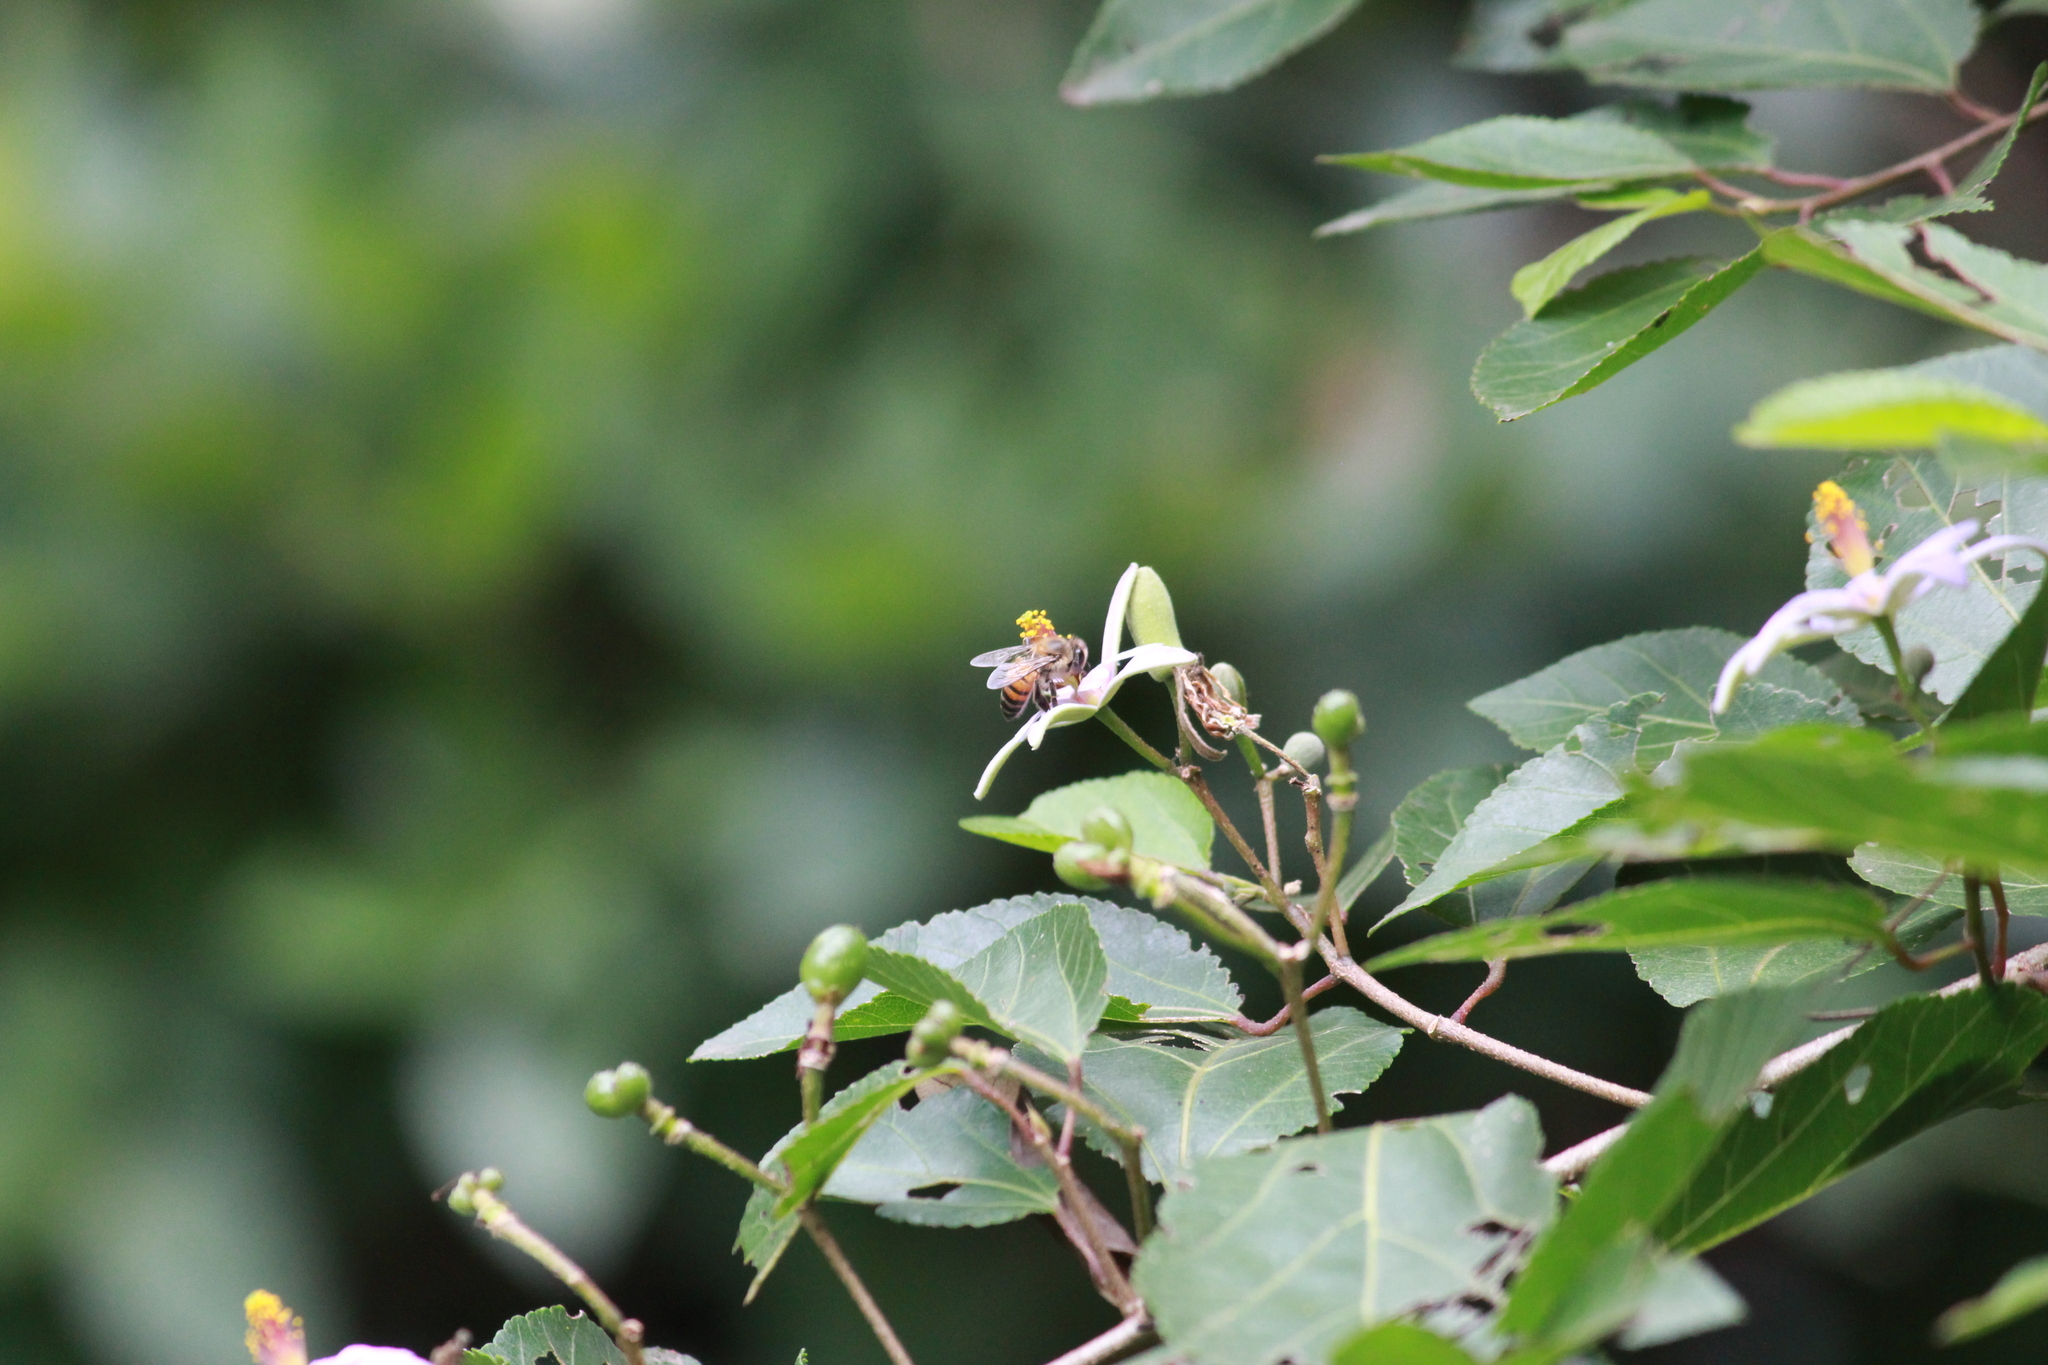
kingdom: Plantae
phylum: Tracheophyta
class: Magnoliopsida
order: Malvales
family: Malvaceae
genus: Grewia
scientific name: Grewia occidentalis
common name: Crossberry
